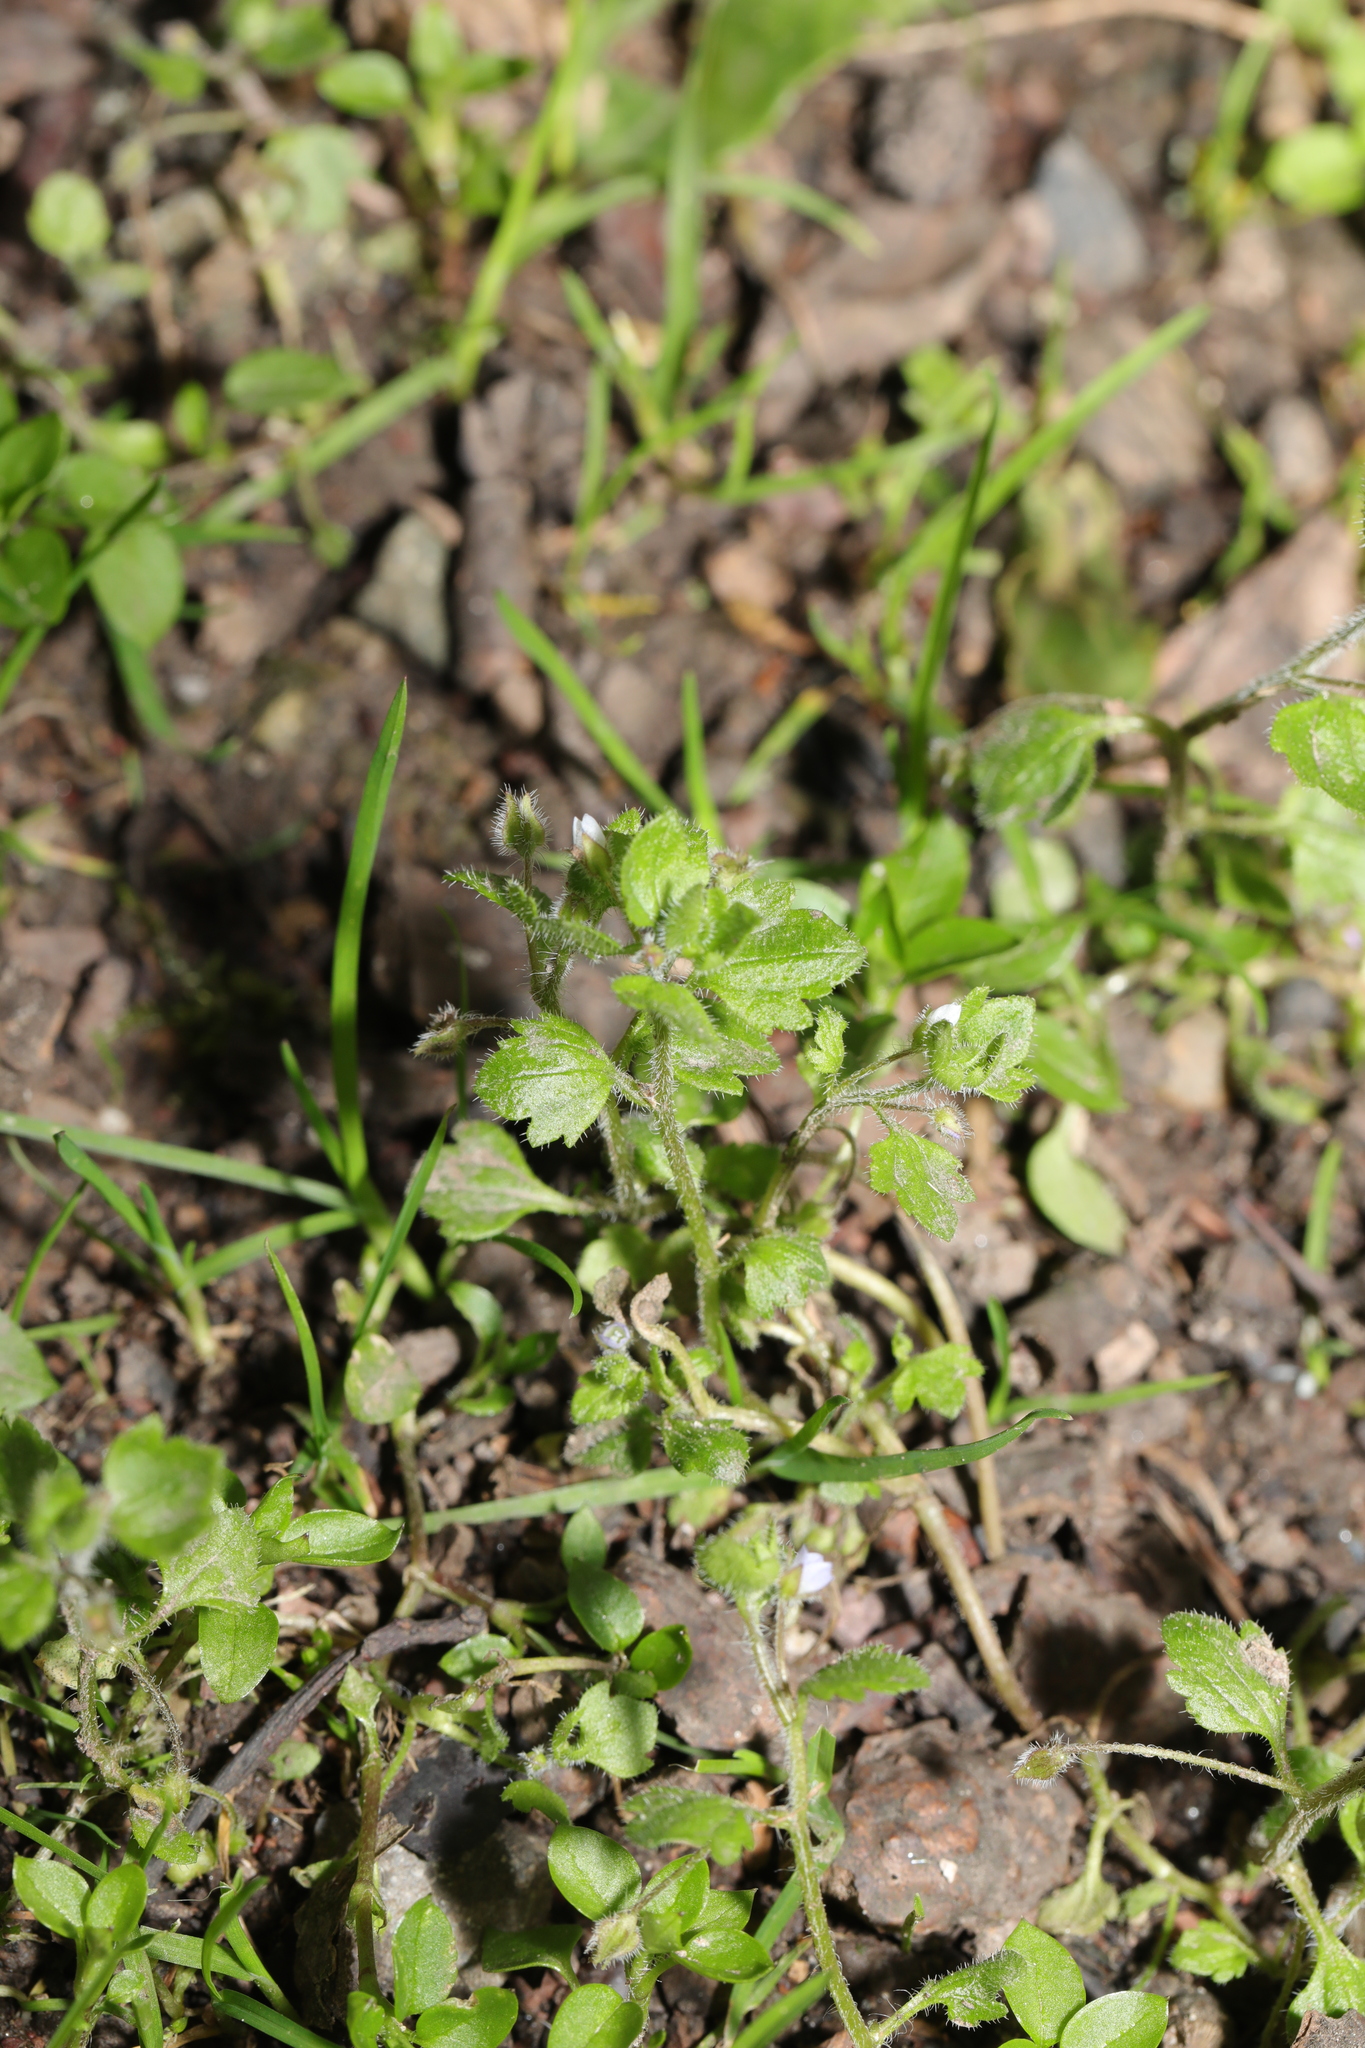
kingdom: Plantae
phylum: Tracheophyta
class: Magnoliopsida
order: Lamiales
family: Plantaginaceae
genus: Veronica
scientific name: Veronica sublobata
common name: False ivy-leaved speedwell
